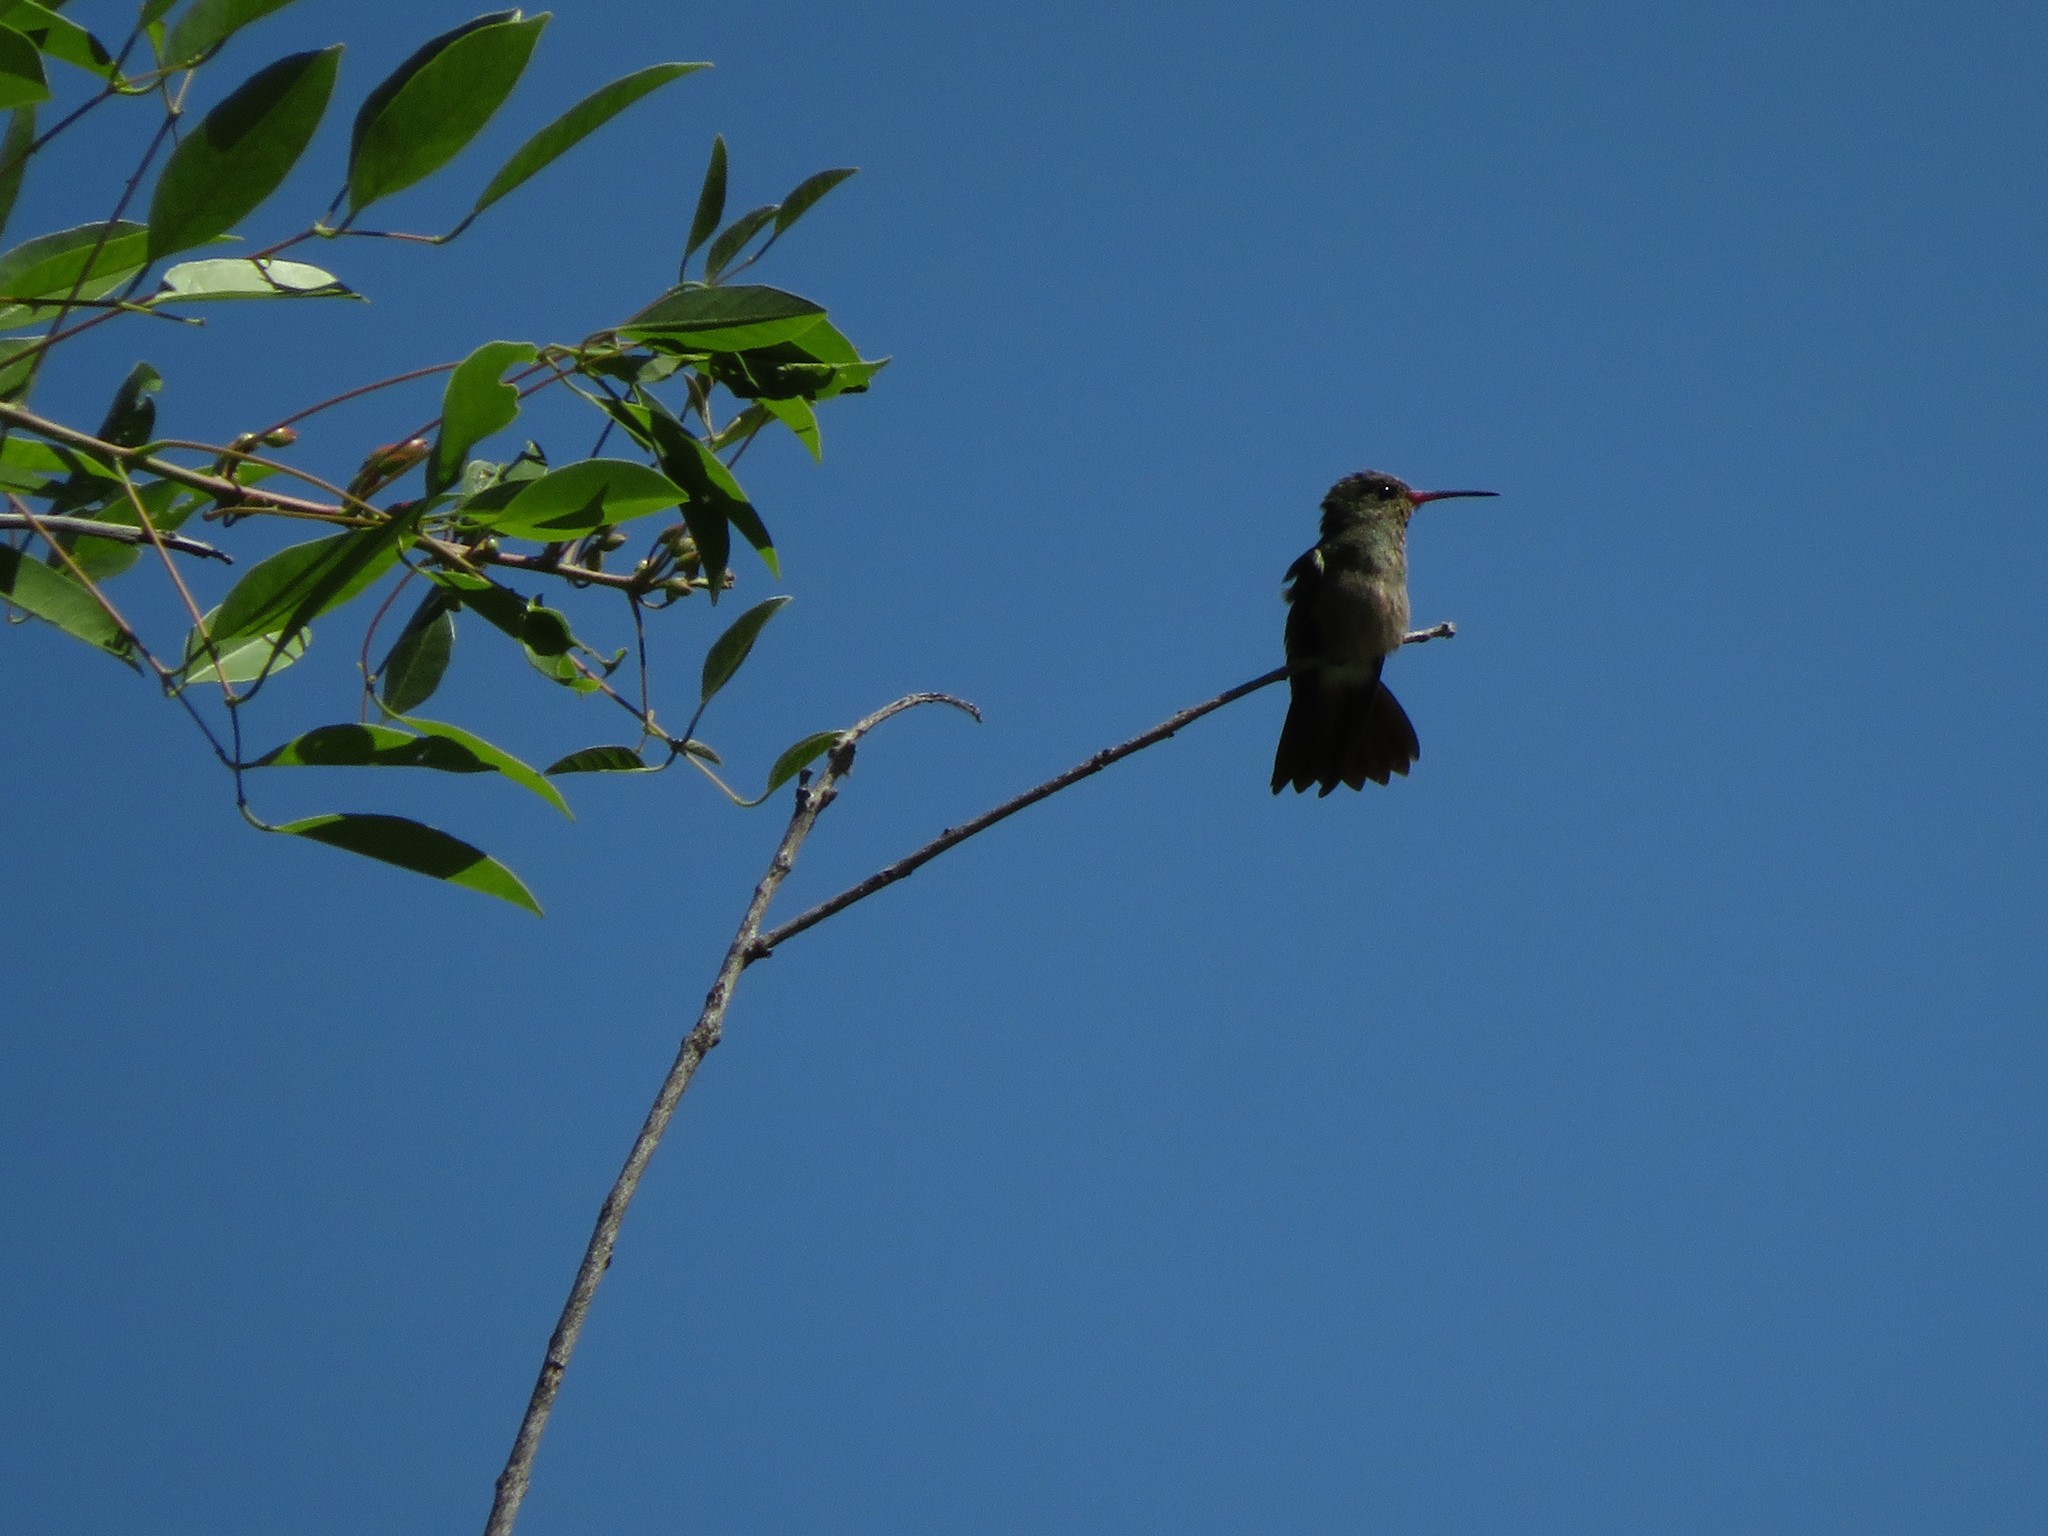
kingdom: Animalia
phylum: Chordata
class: Aves
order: Apodiformes
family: Trochilidae
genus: Hylocharis
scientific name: Hylocharis chrysura
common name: Gilded sapphire
